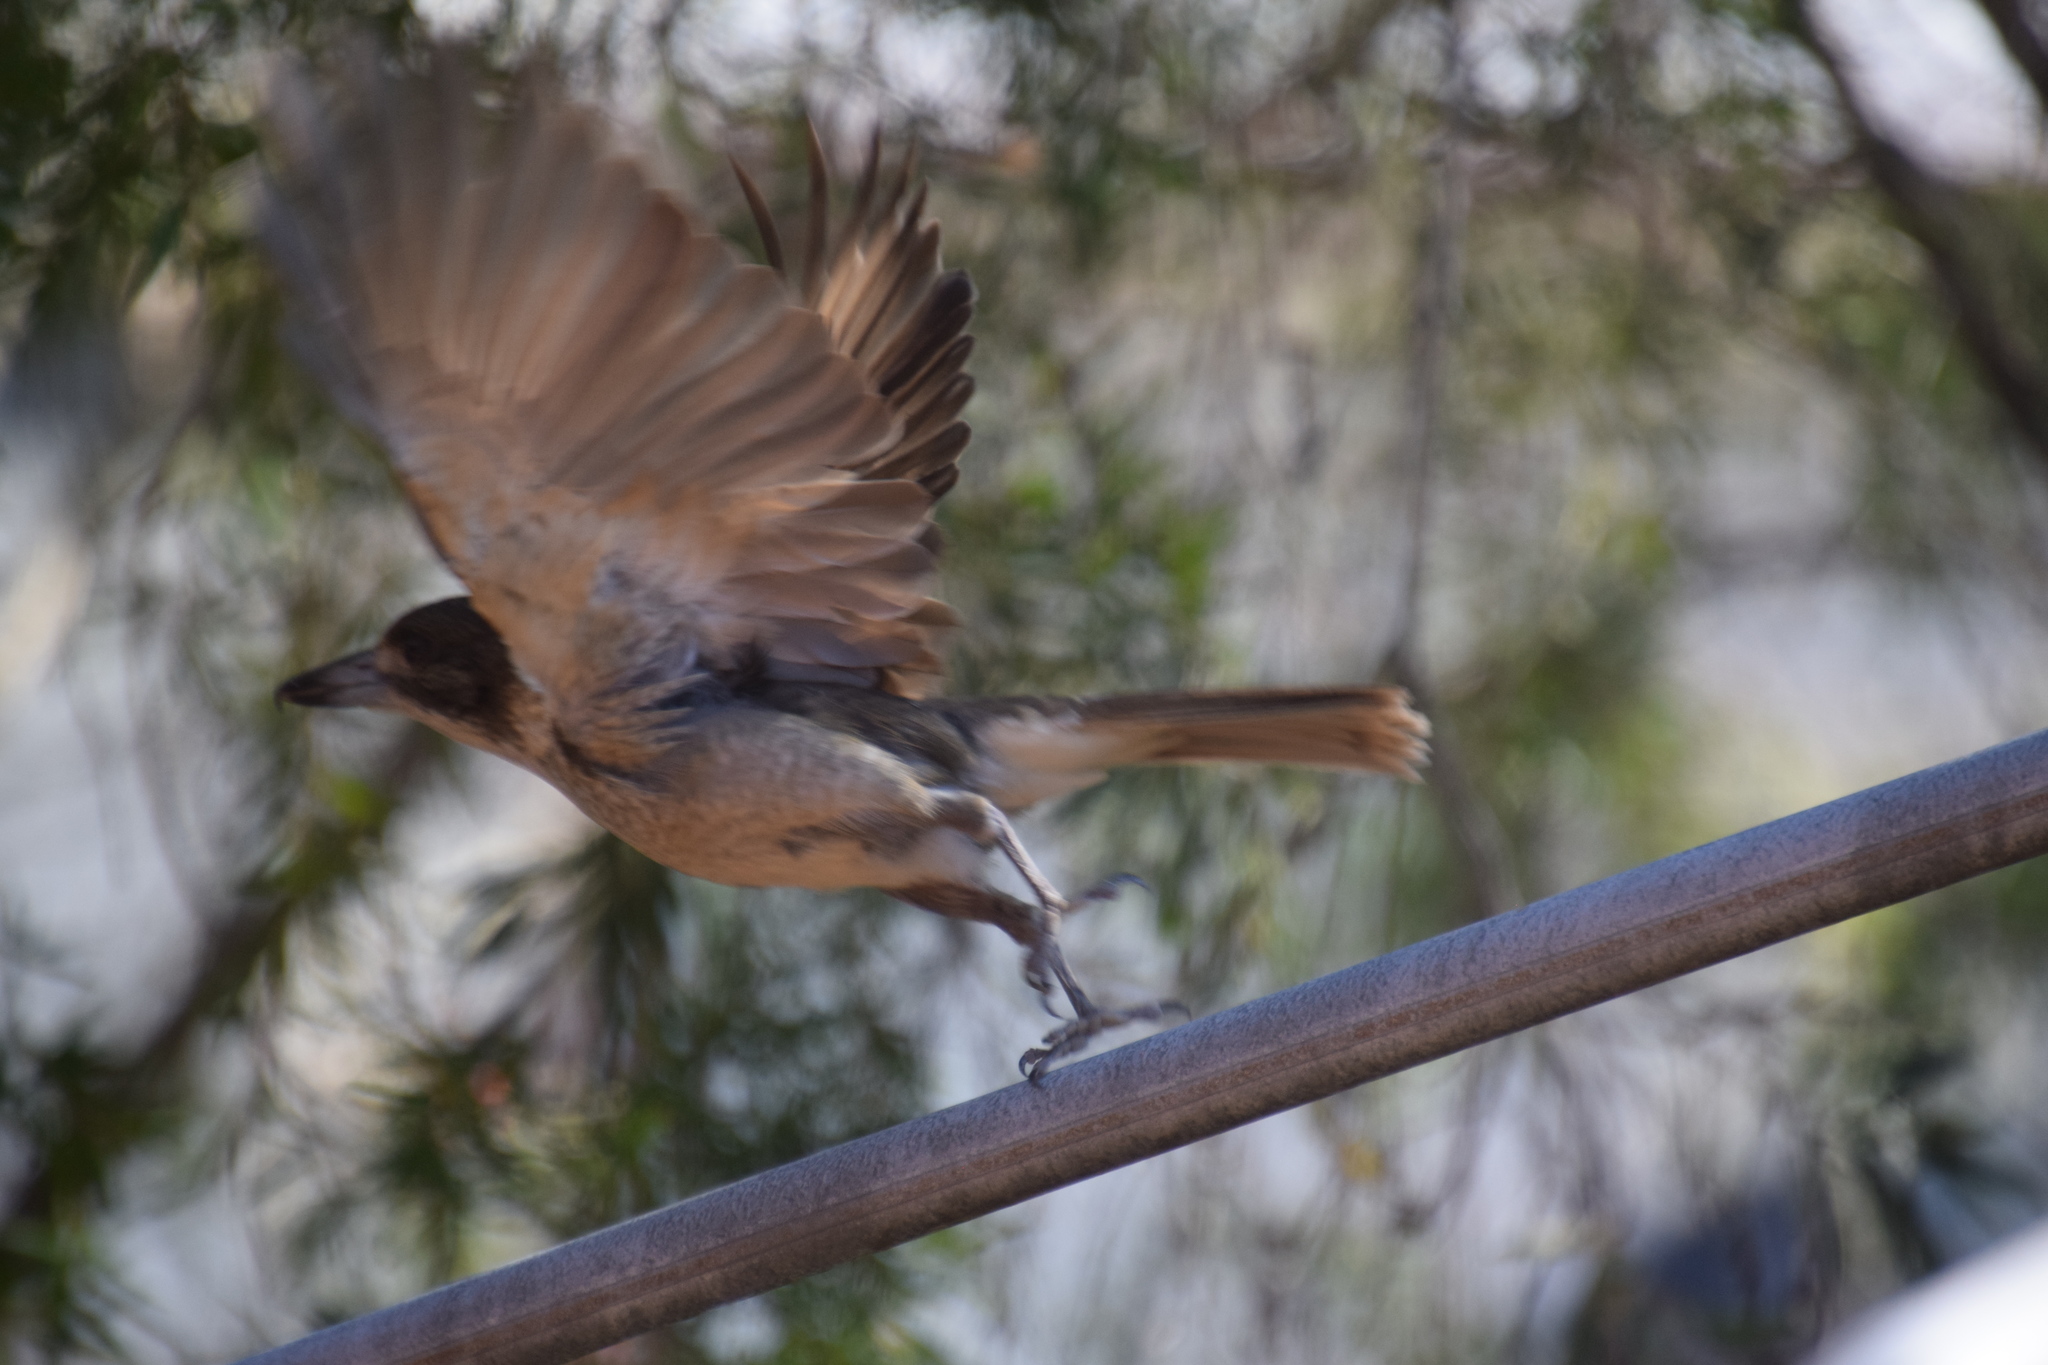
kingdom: Animalia
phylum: Chordata
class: Aves
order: Passeriformes
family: Cracticidae
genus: Cracticus
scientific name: Cracticus torquatus
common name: Grey butcherbird
